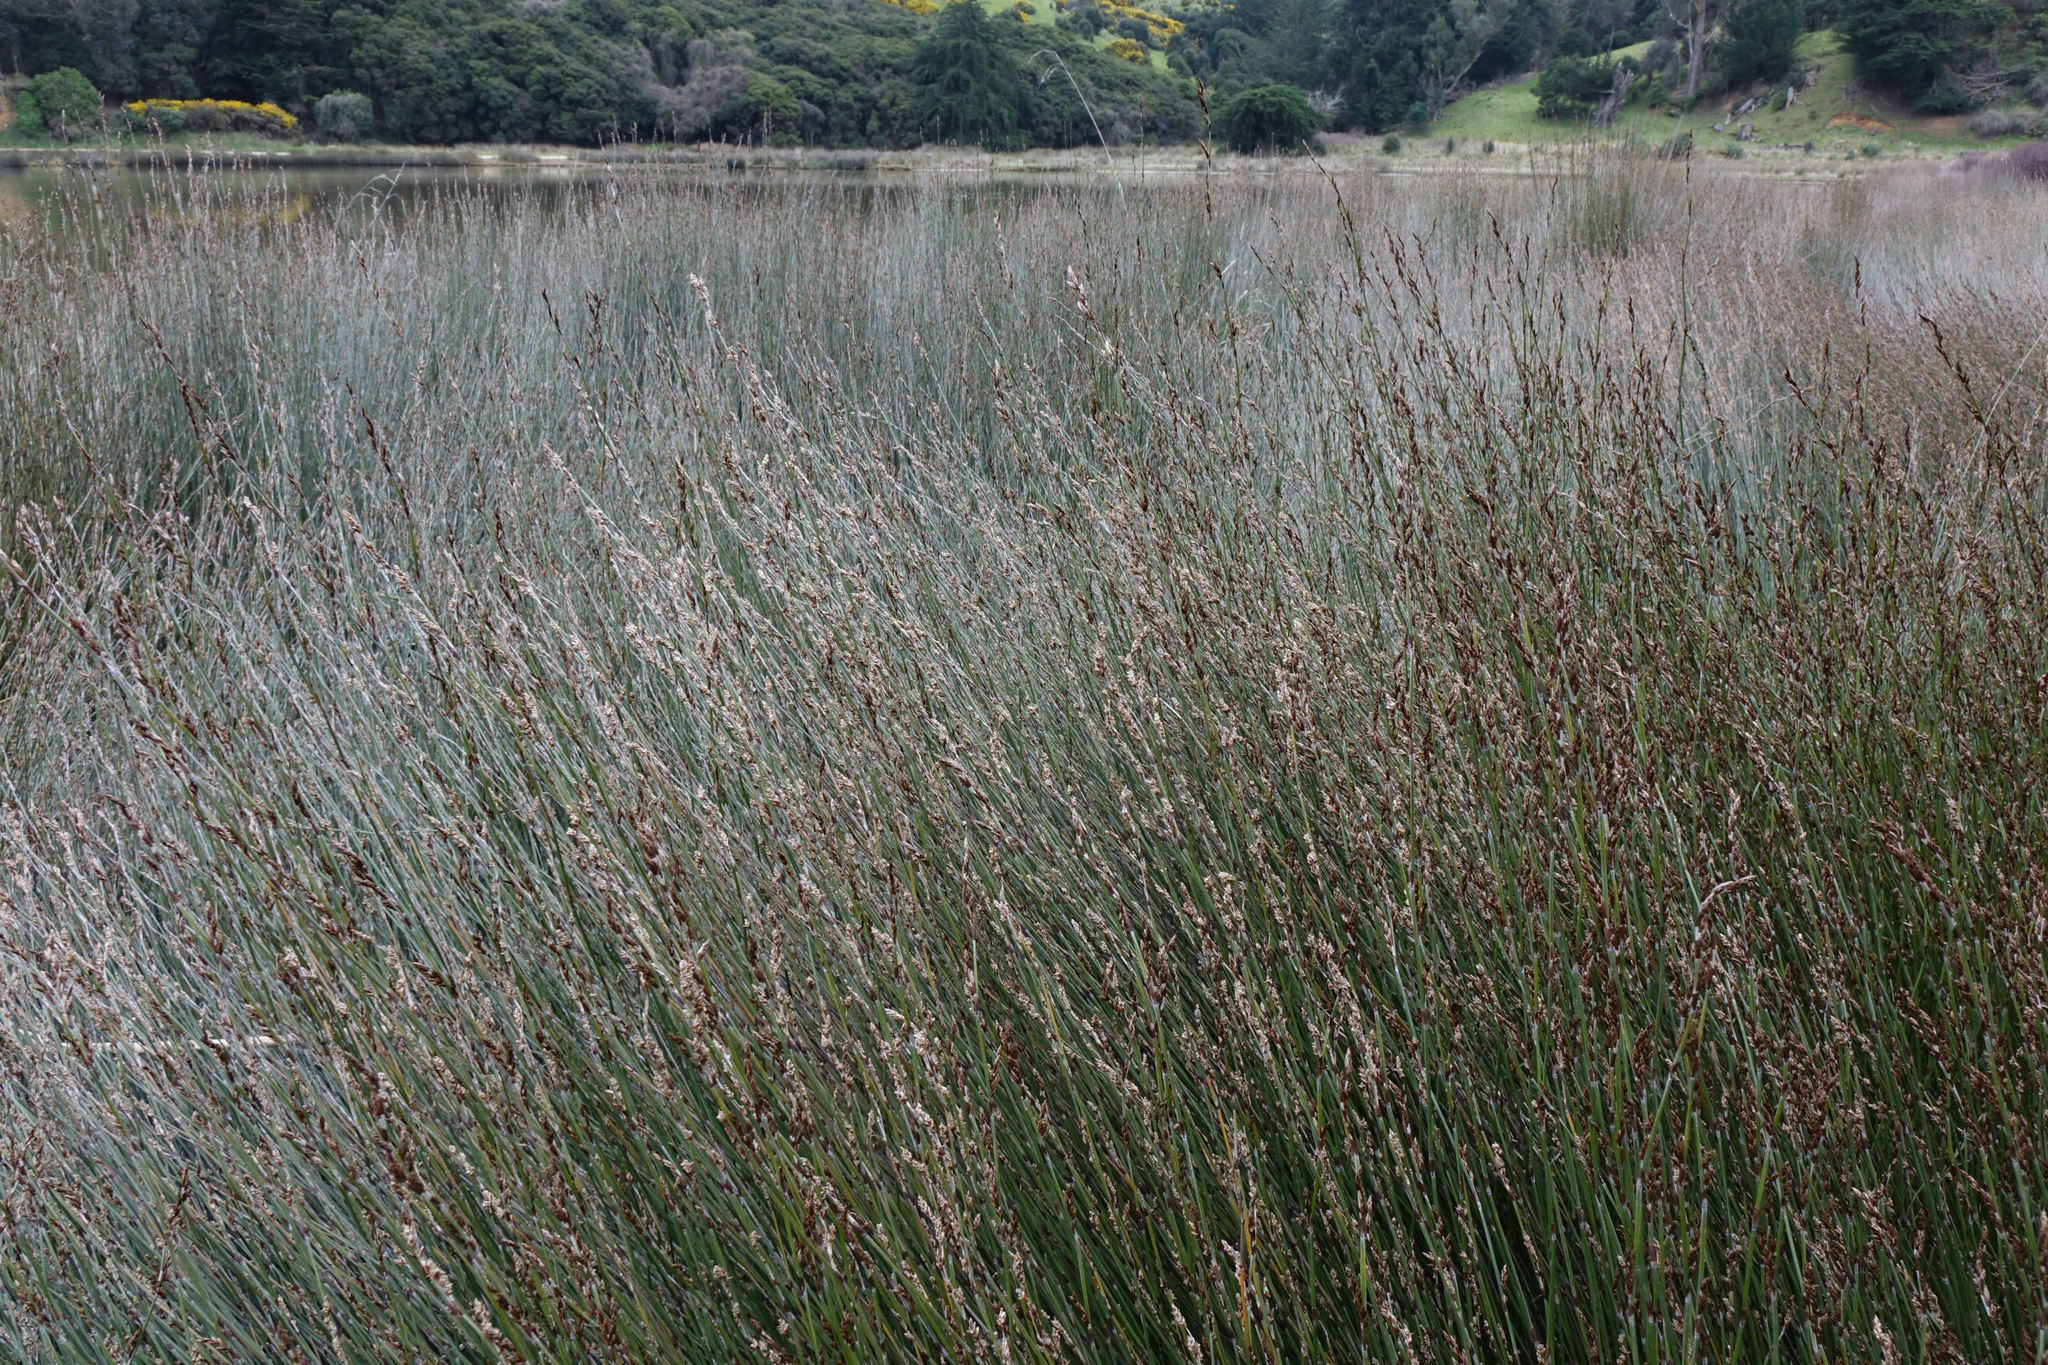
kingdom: Plantae
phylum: Tracheophyta
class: Liliopsida
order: Poales
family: Restionaceae
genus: Apodasmia
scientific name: Apodasmia similis
